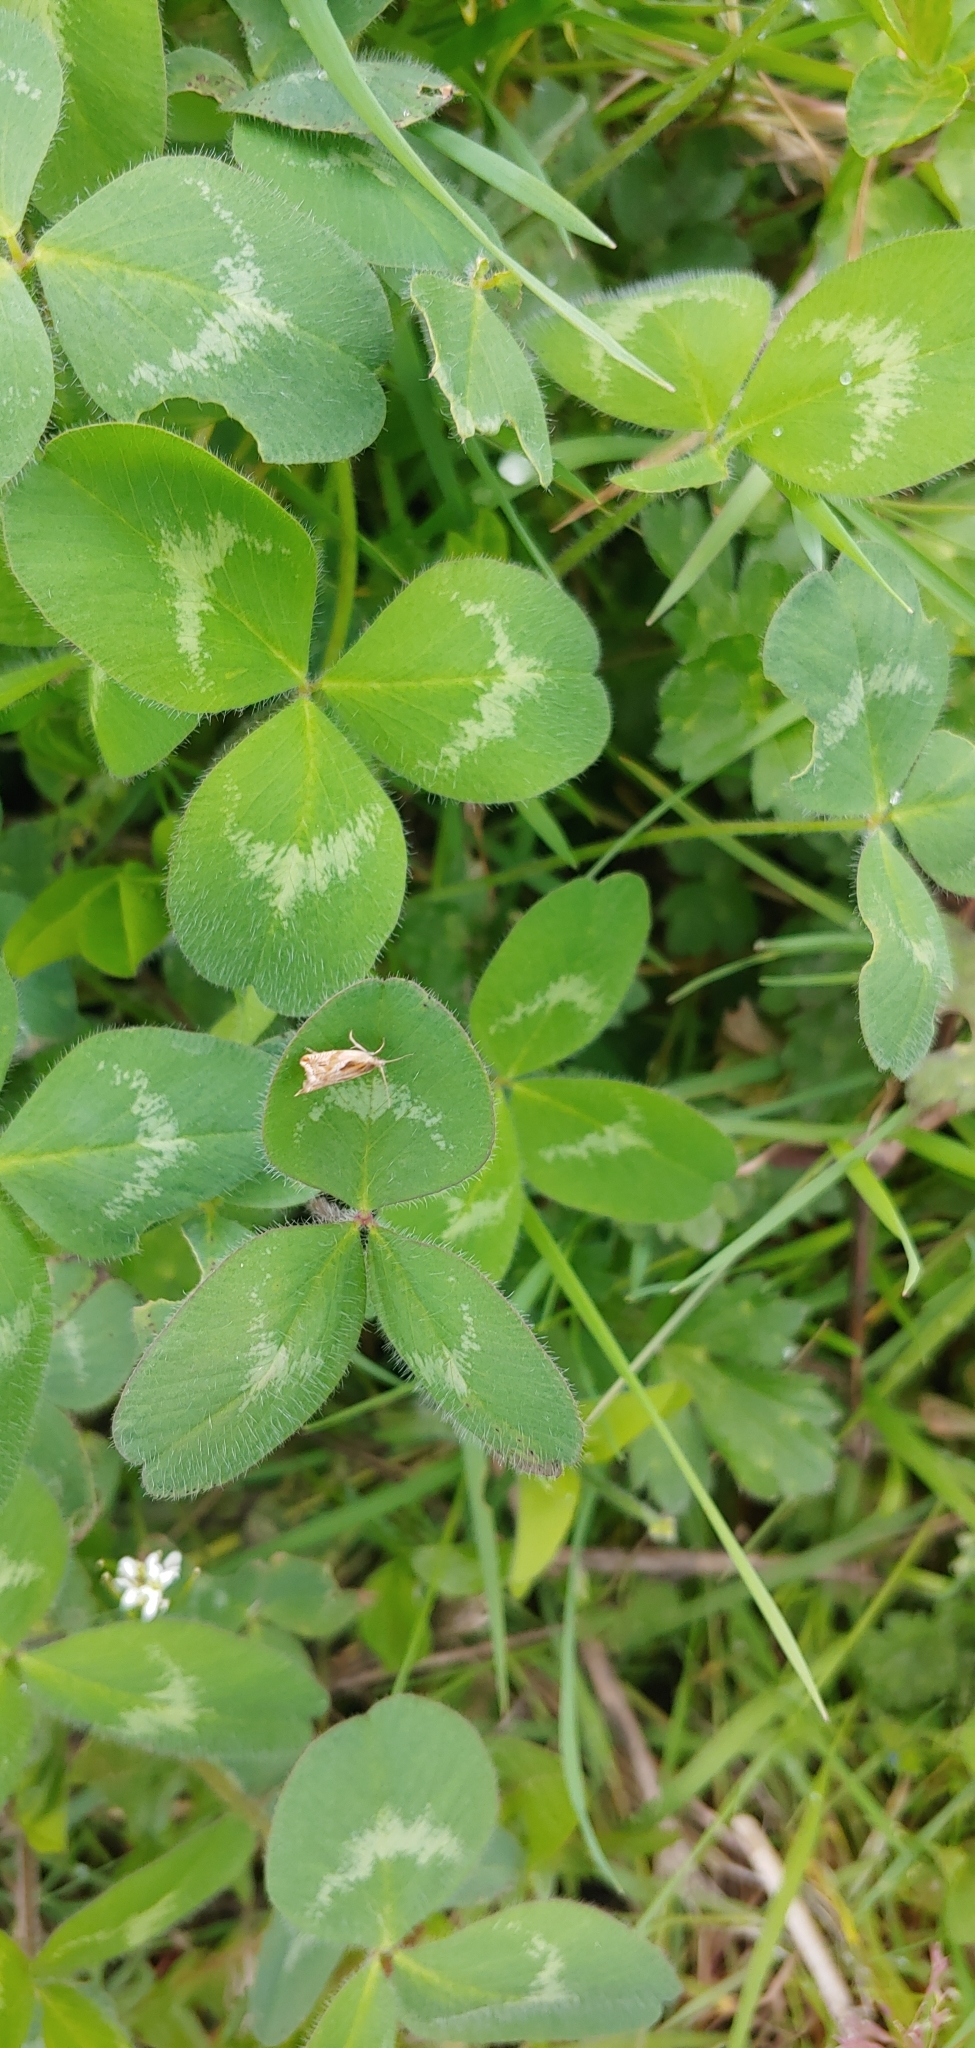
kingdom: Plantae
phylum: Tracheophyta
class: Magnoliopsida
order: Fabales
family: Fabaceae
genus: Trifolium
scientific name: Trifolium pratense
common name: Red clover
